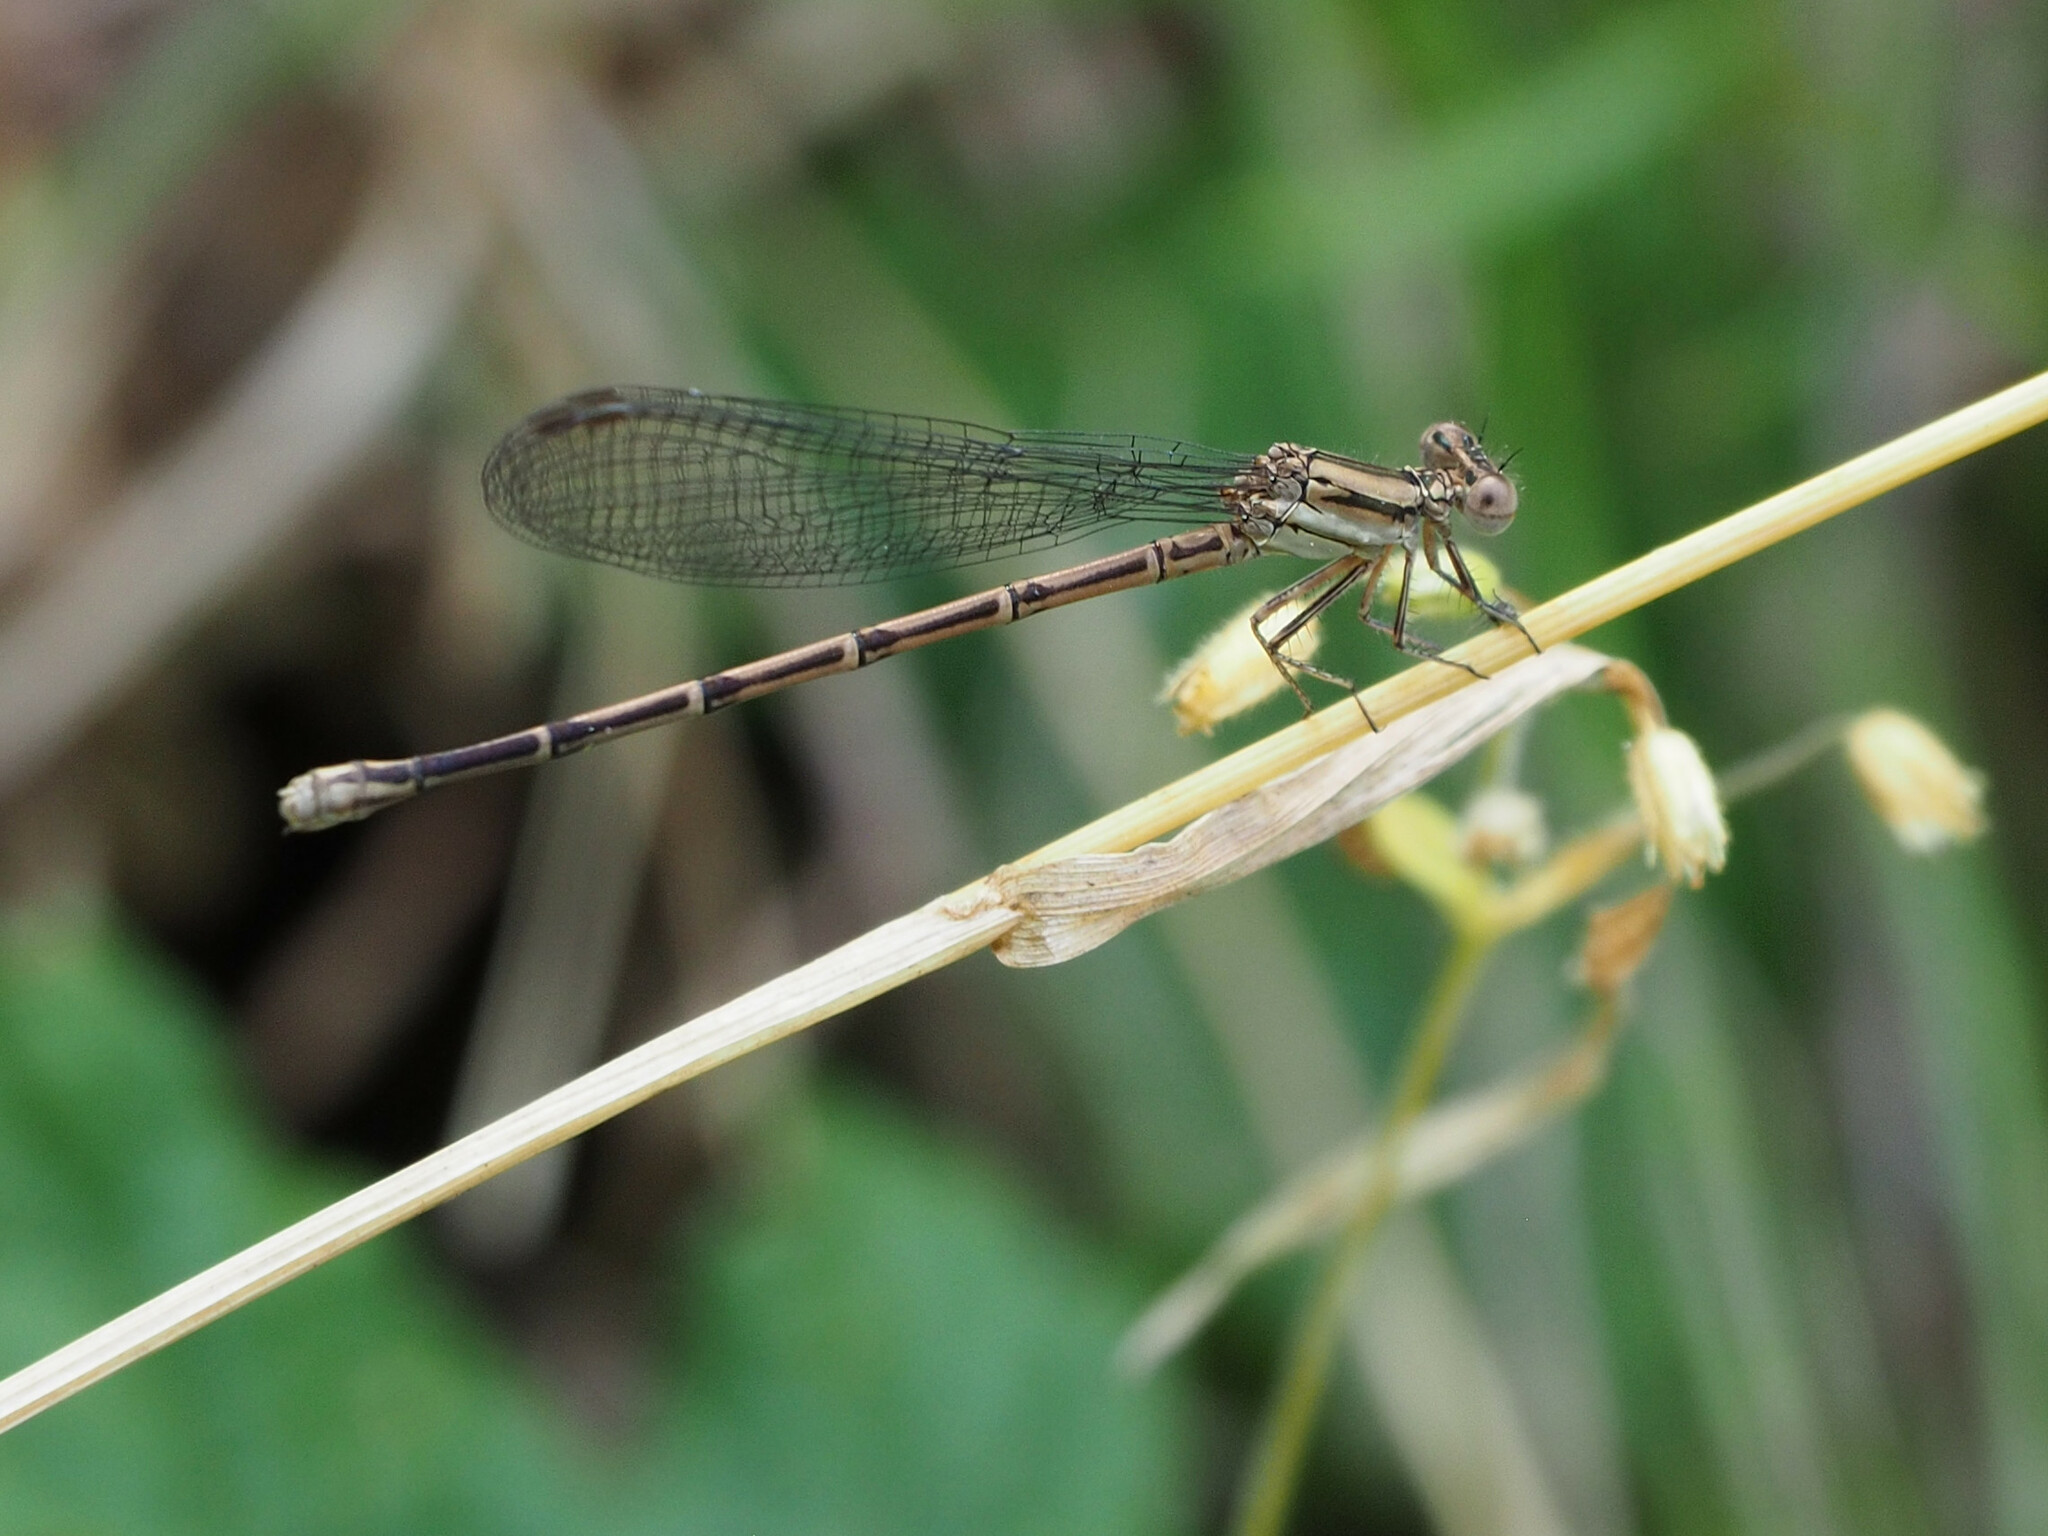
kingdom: Animalia
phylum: Arthropoda
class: Insecta
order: Odonata
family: Coenagrionidae
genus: Argia
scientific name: Argia fumipennis
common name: Variable dancer
